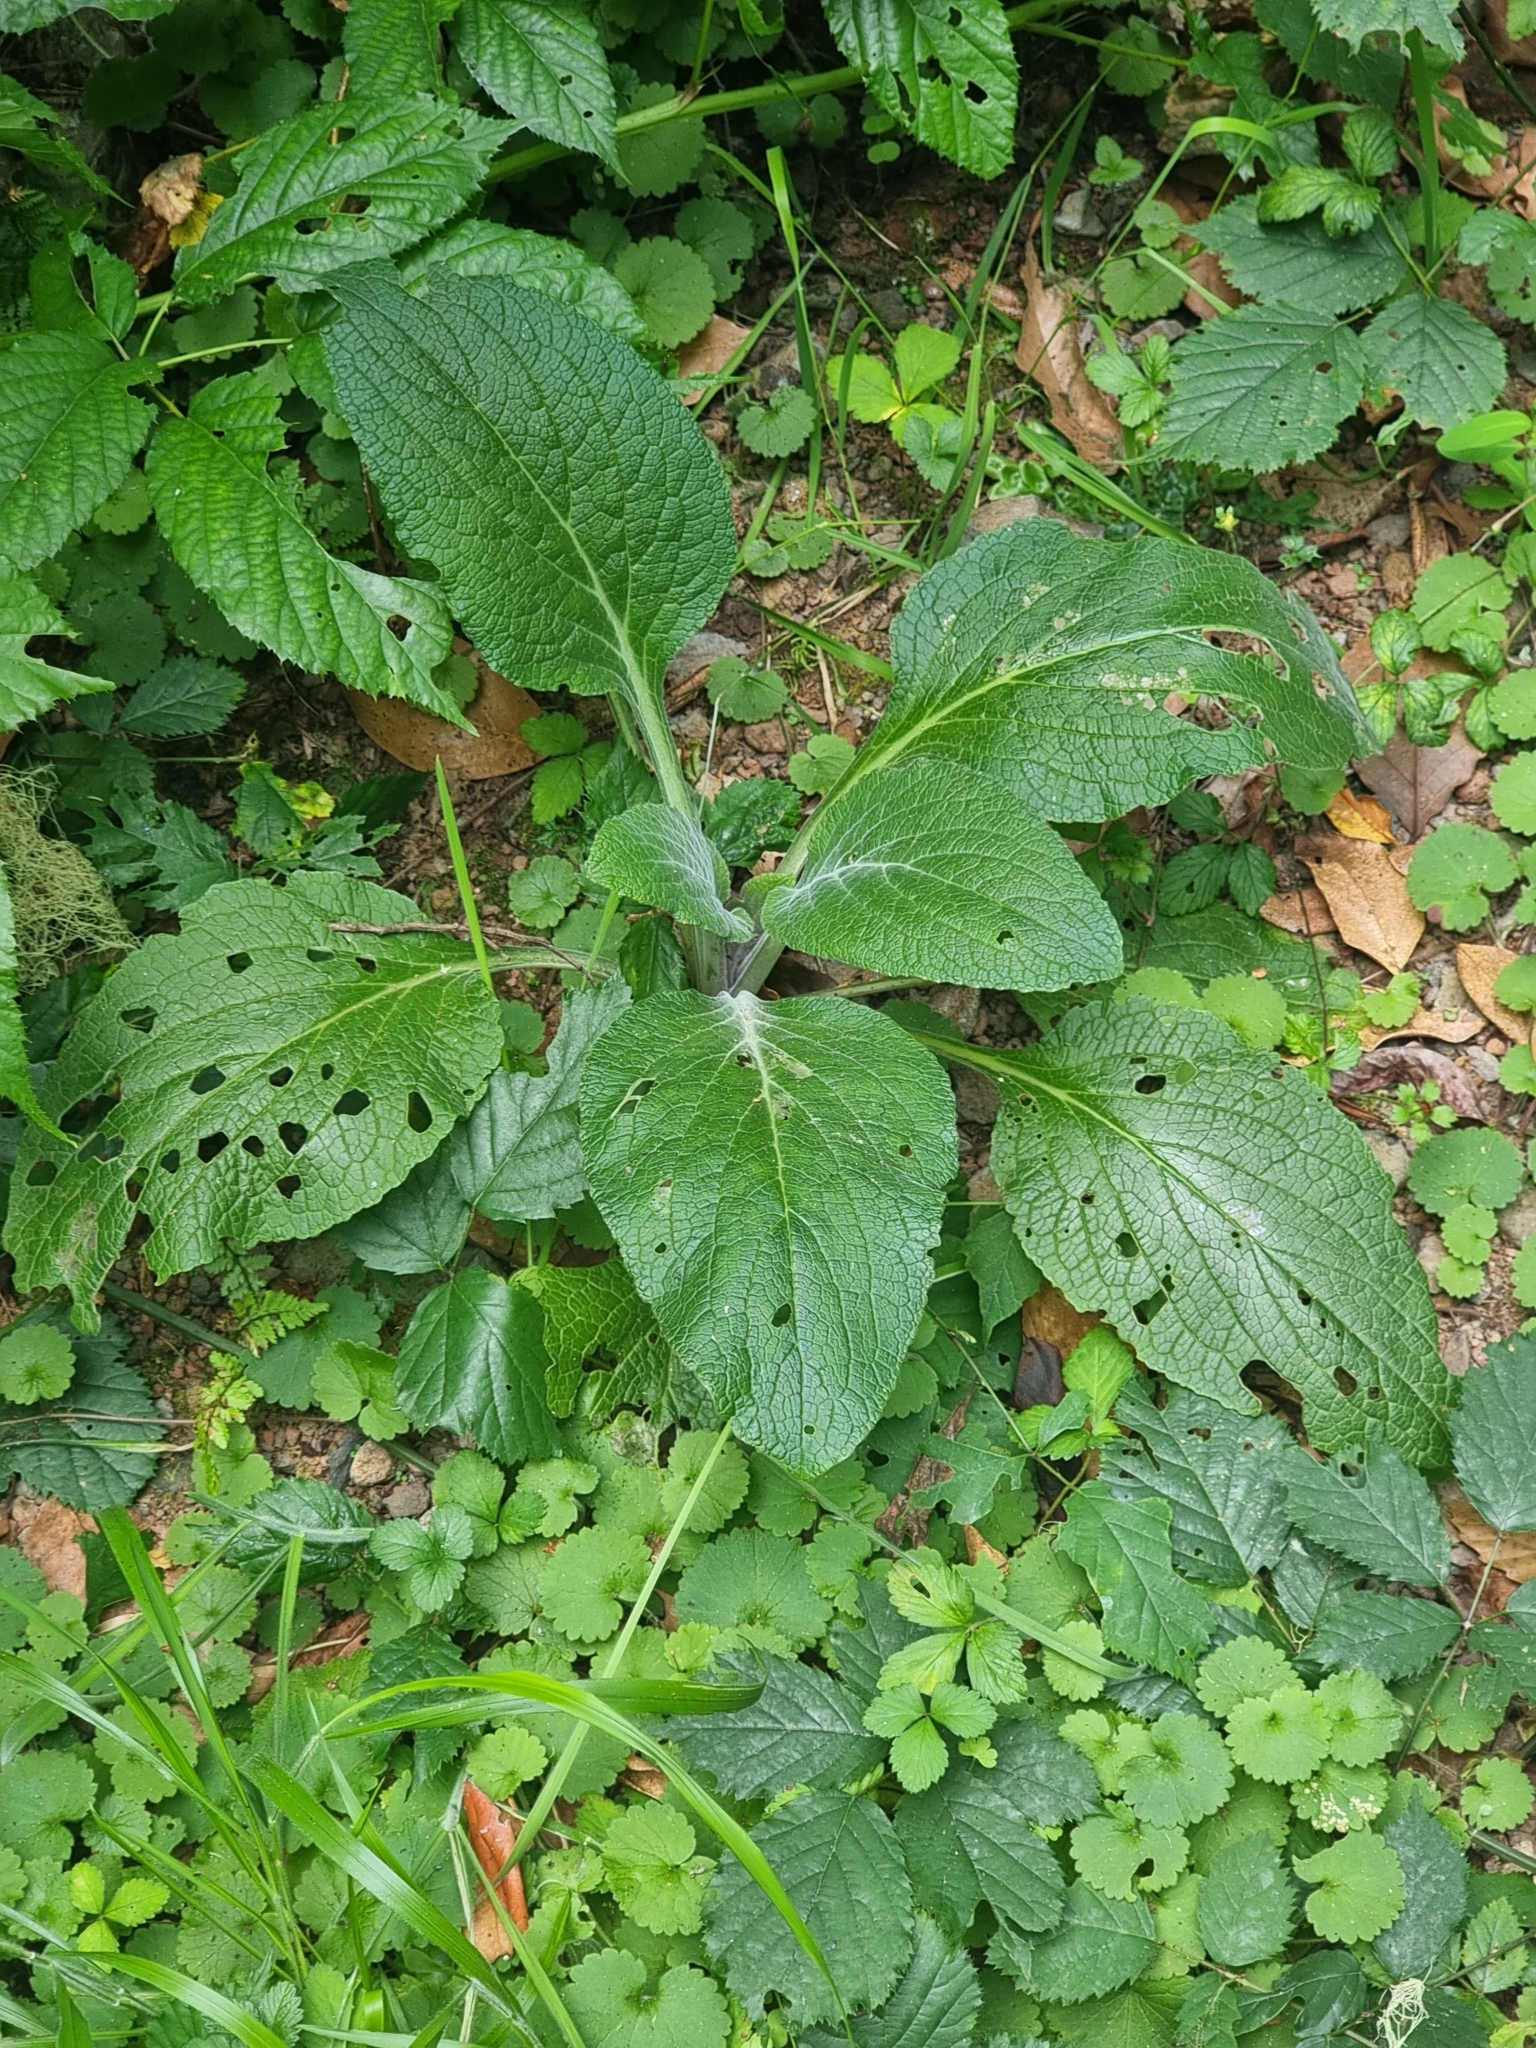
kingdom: Plantae
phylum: Tracheophyta
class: Magnoliopsida
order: Lamiales
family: Plantaginaceae
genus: Digitalis
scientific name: Digitalis purpurea
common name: Foxglove
